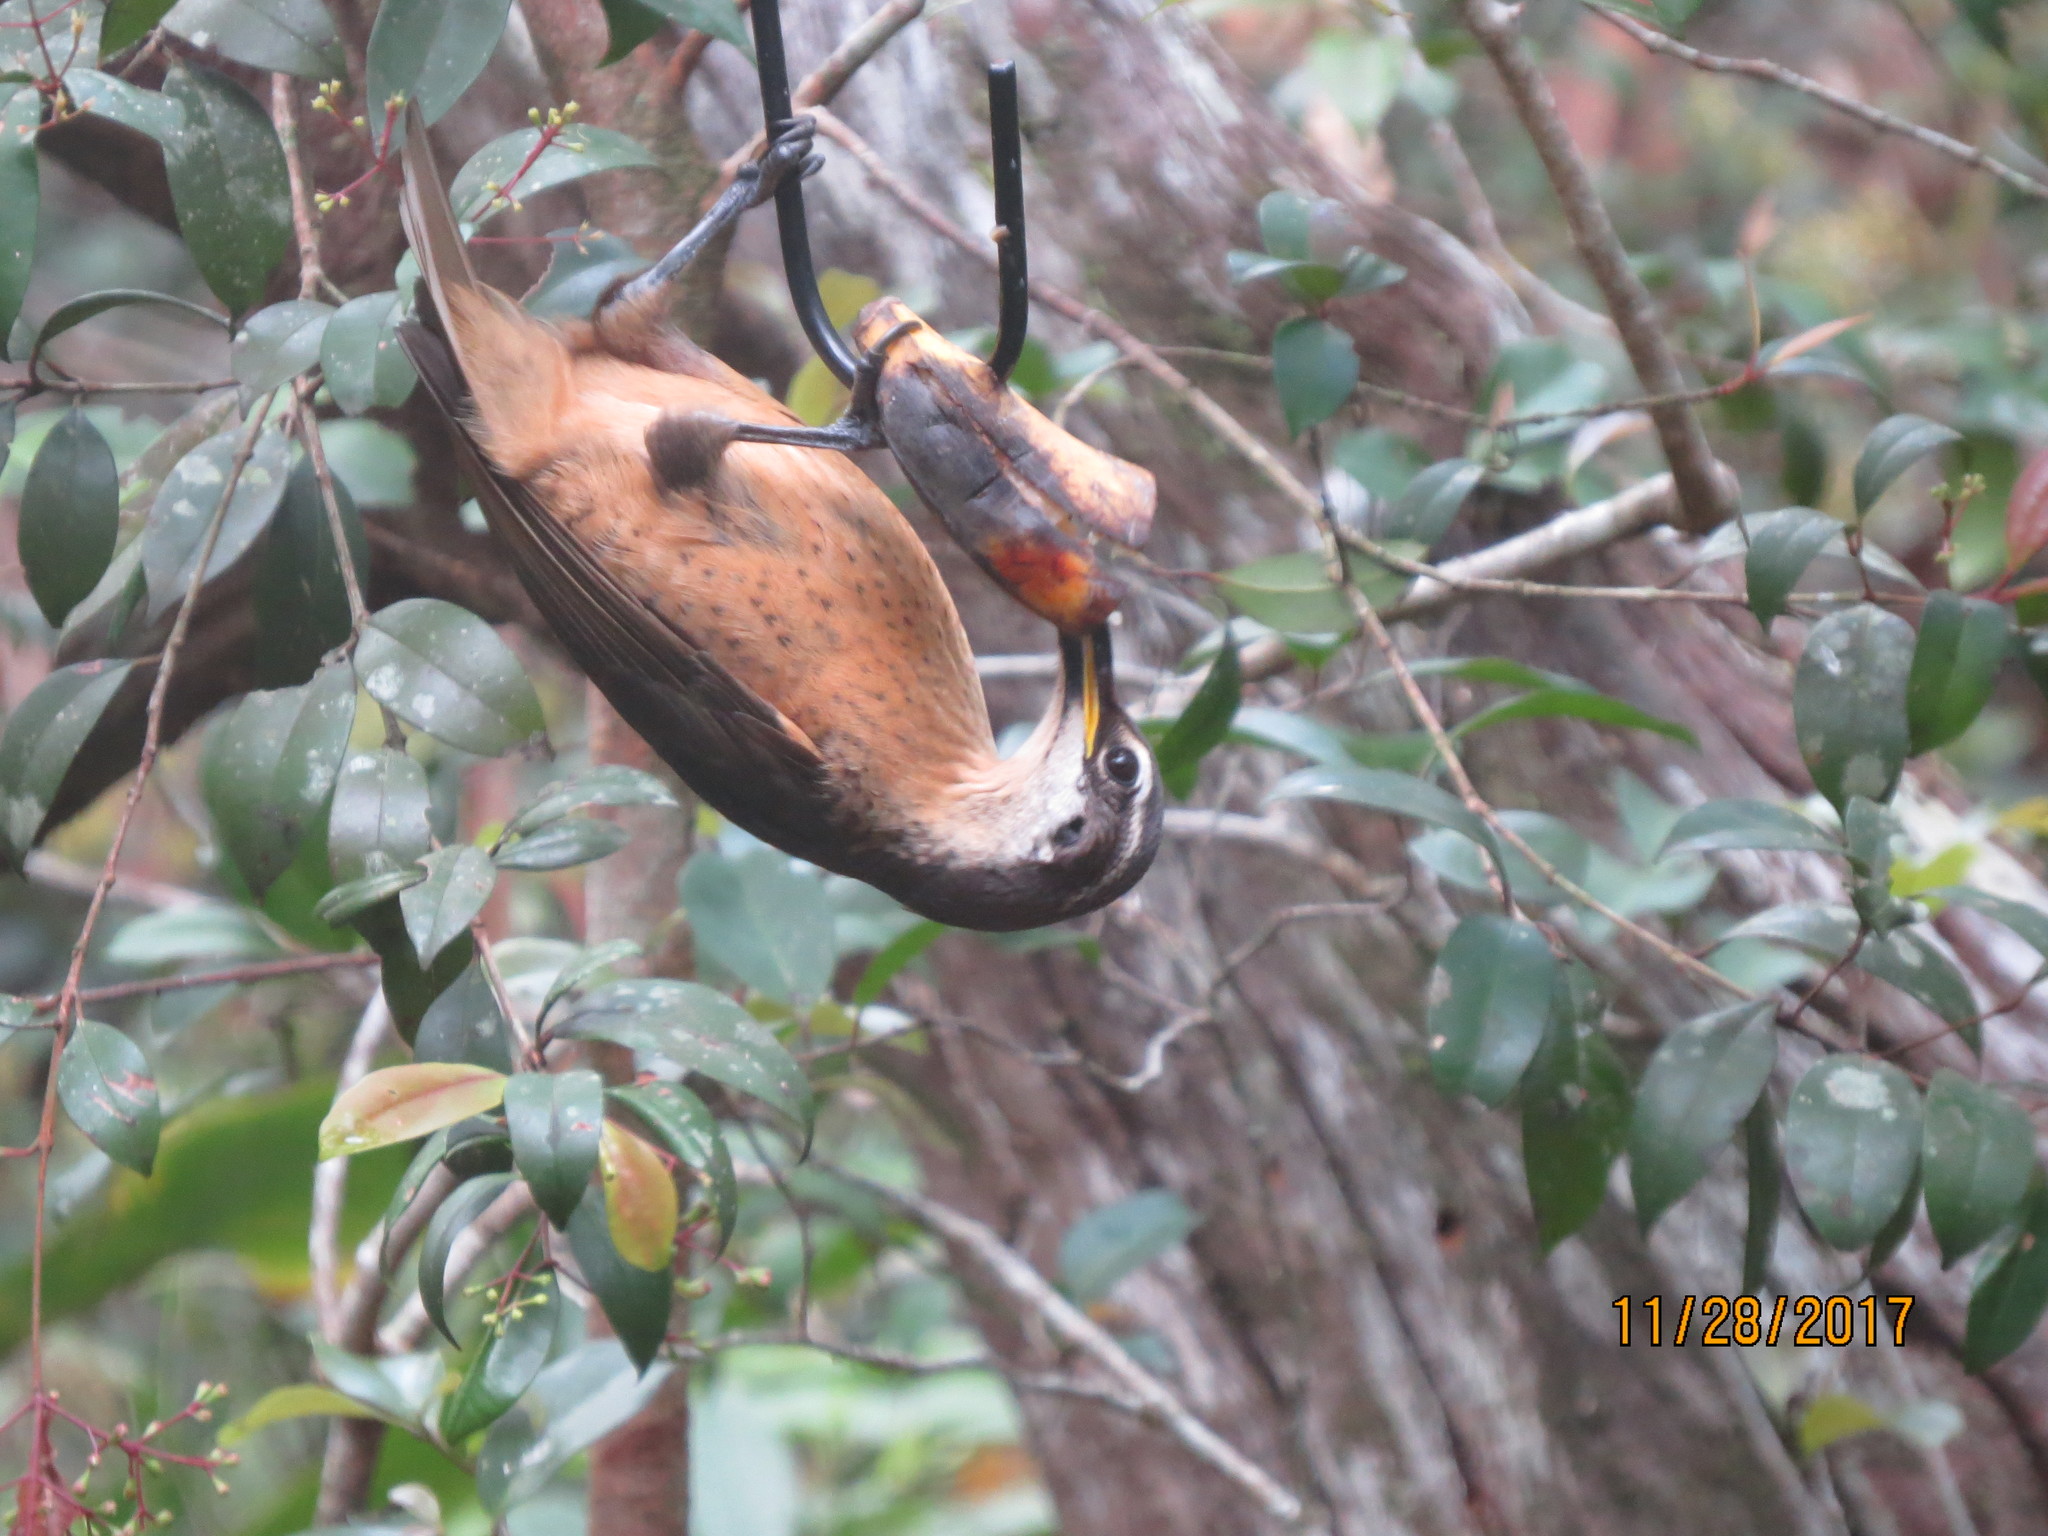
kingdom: Animalia
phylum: Chordata
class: Aves
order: Passeriformes
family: Paradisaeidae
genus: Ptiloris
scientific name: Ptiloris victoriae
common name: Victoria's riflebird
